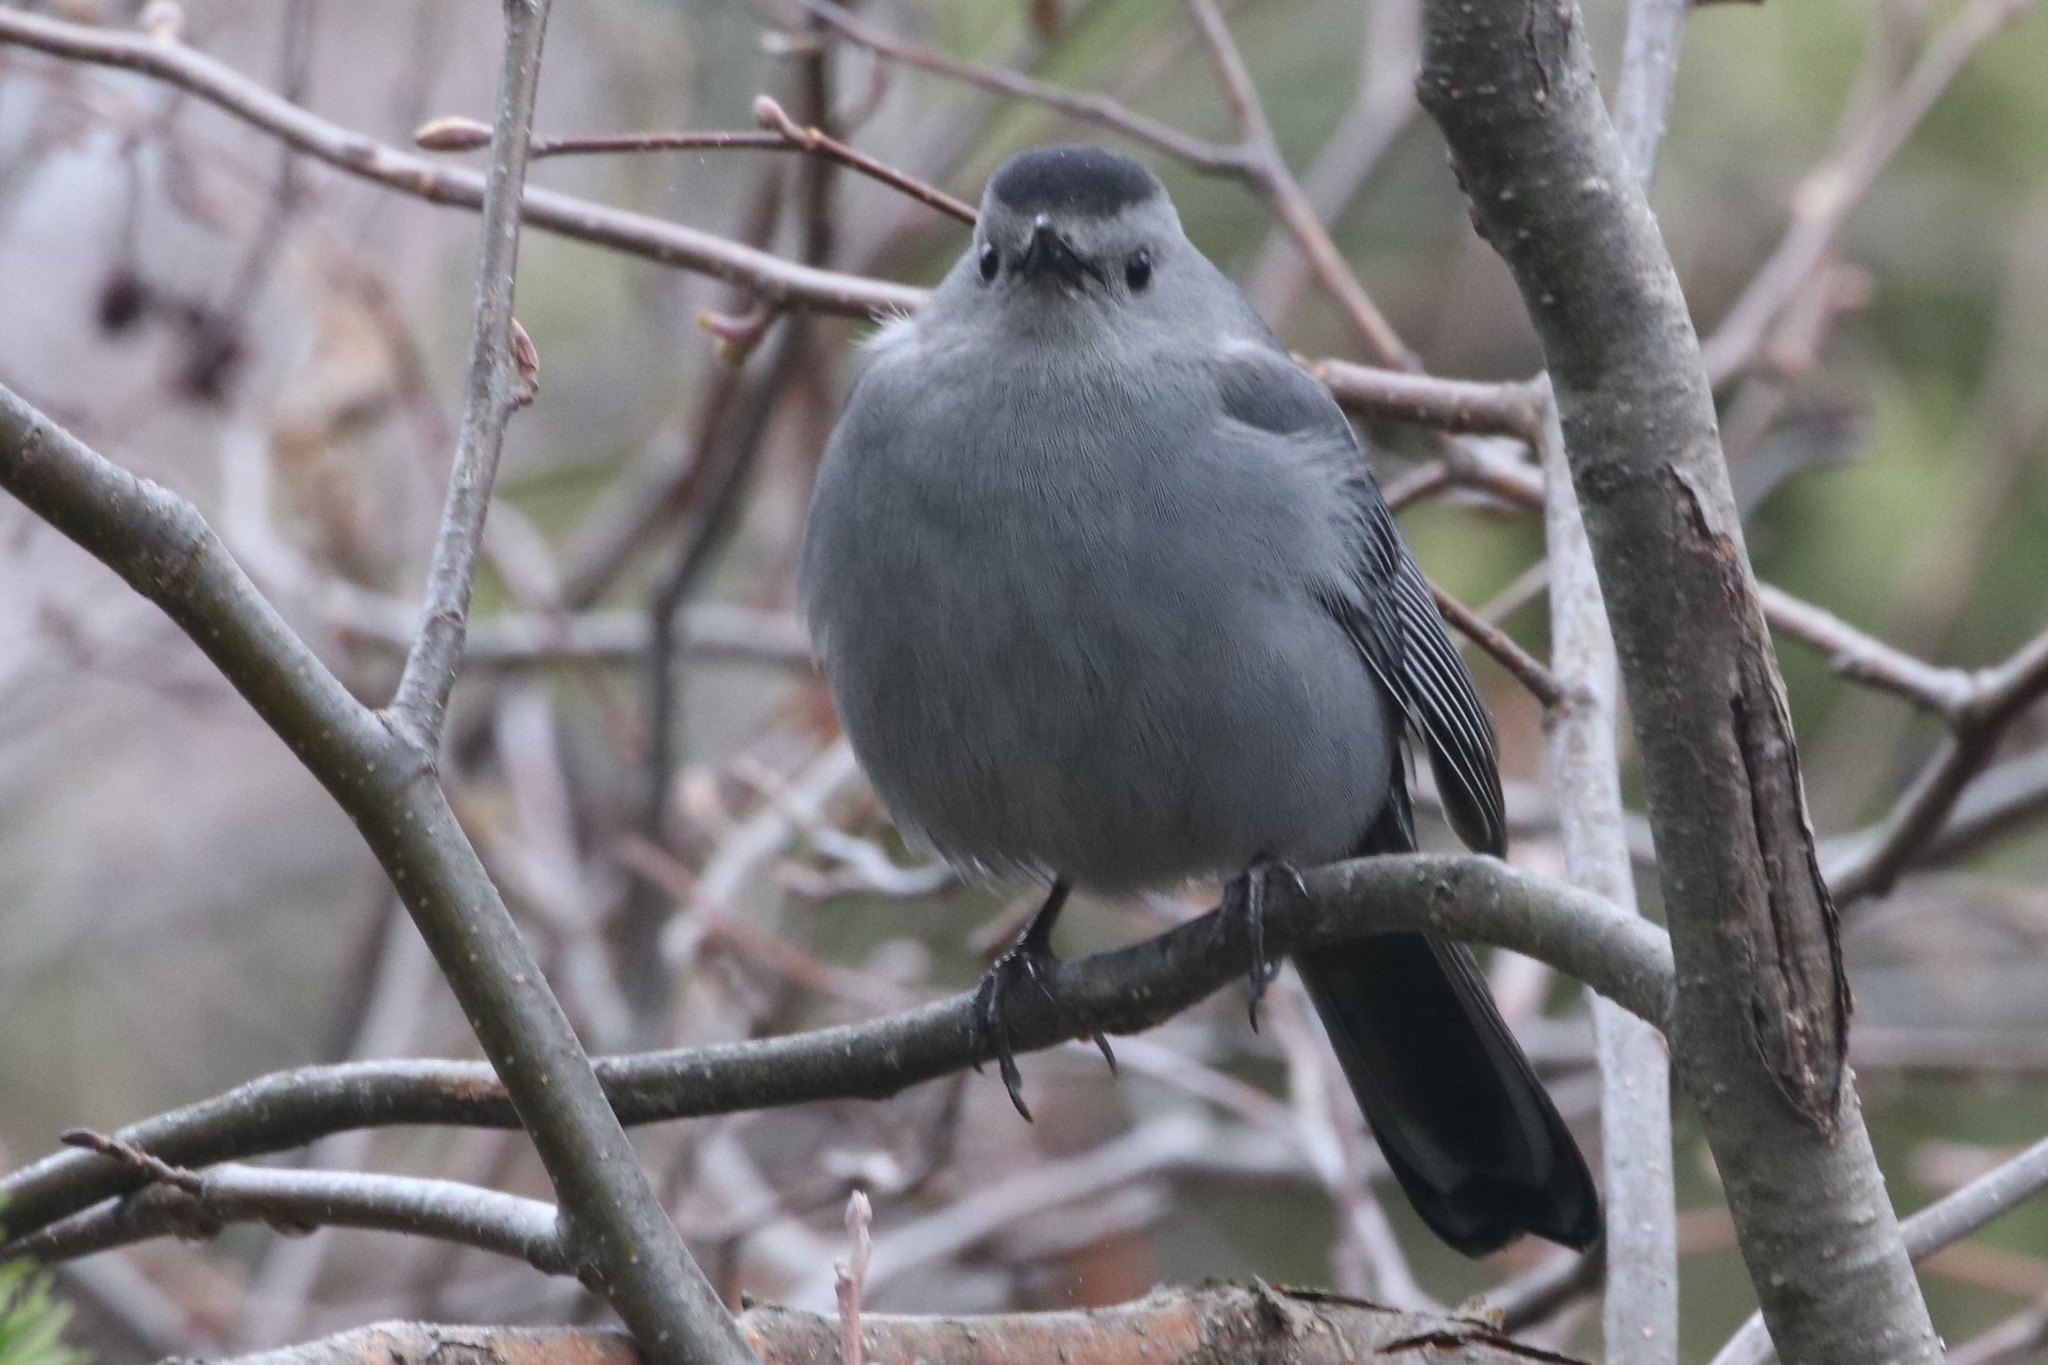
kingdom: Animalia
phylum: Chordata
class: Aves
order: Passeriformes
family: Mimidae
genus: Dumetella
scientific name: Dumetella carolinensis
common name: Gray catbird
